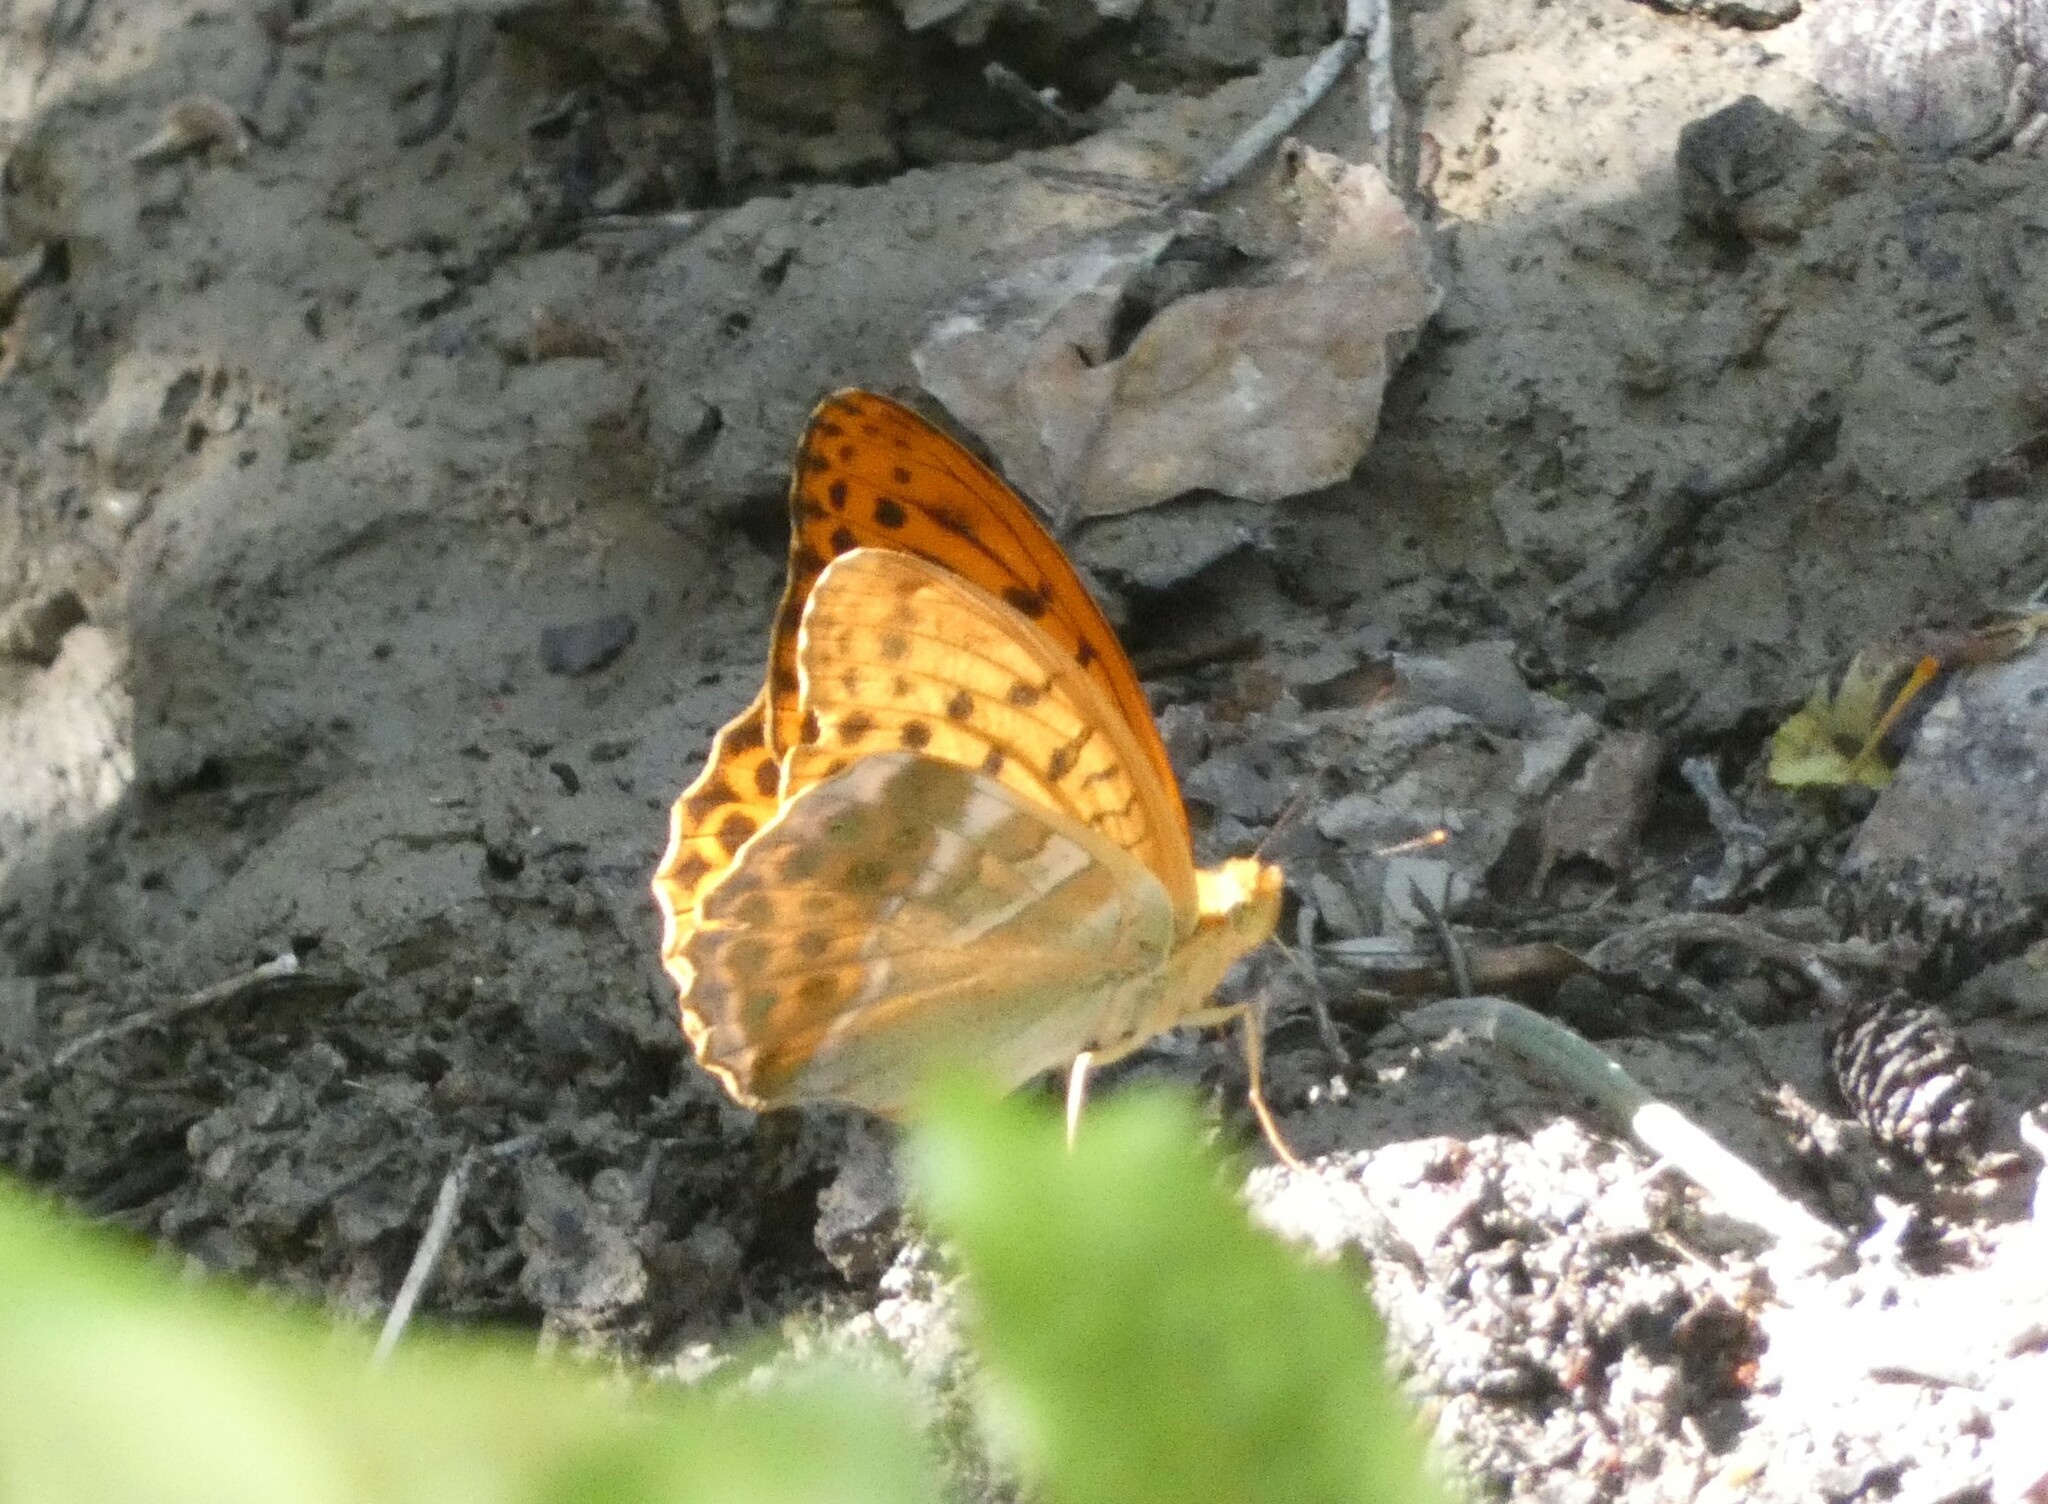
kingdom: Animalia
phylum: Arthropoda
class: Insecta
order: Lepidoptera
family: Nymphalidae
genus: Argynnis
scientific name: Argynnis paphia
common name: Silver-washed fritillary
